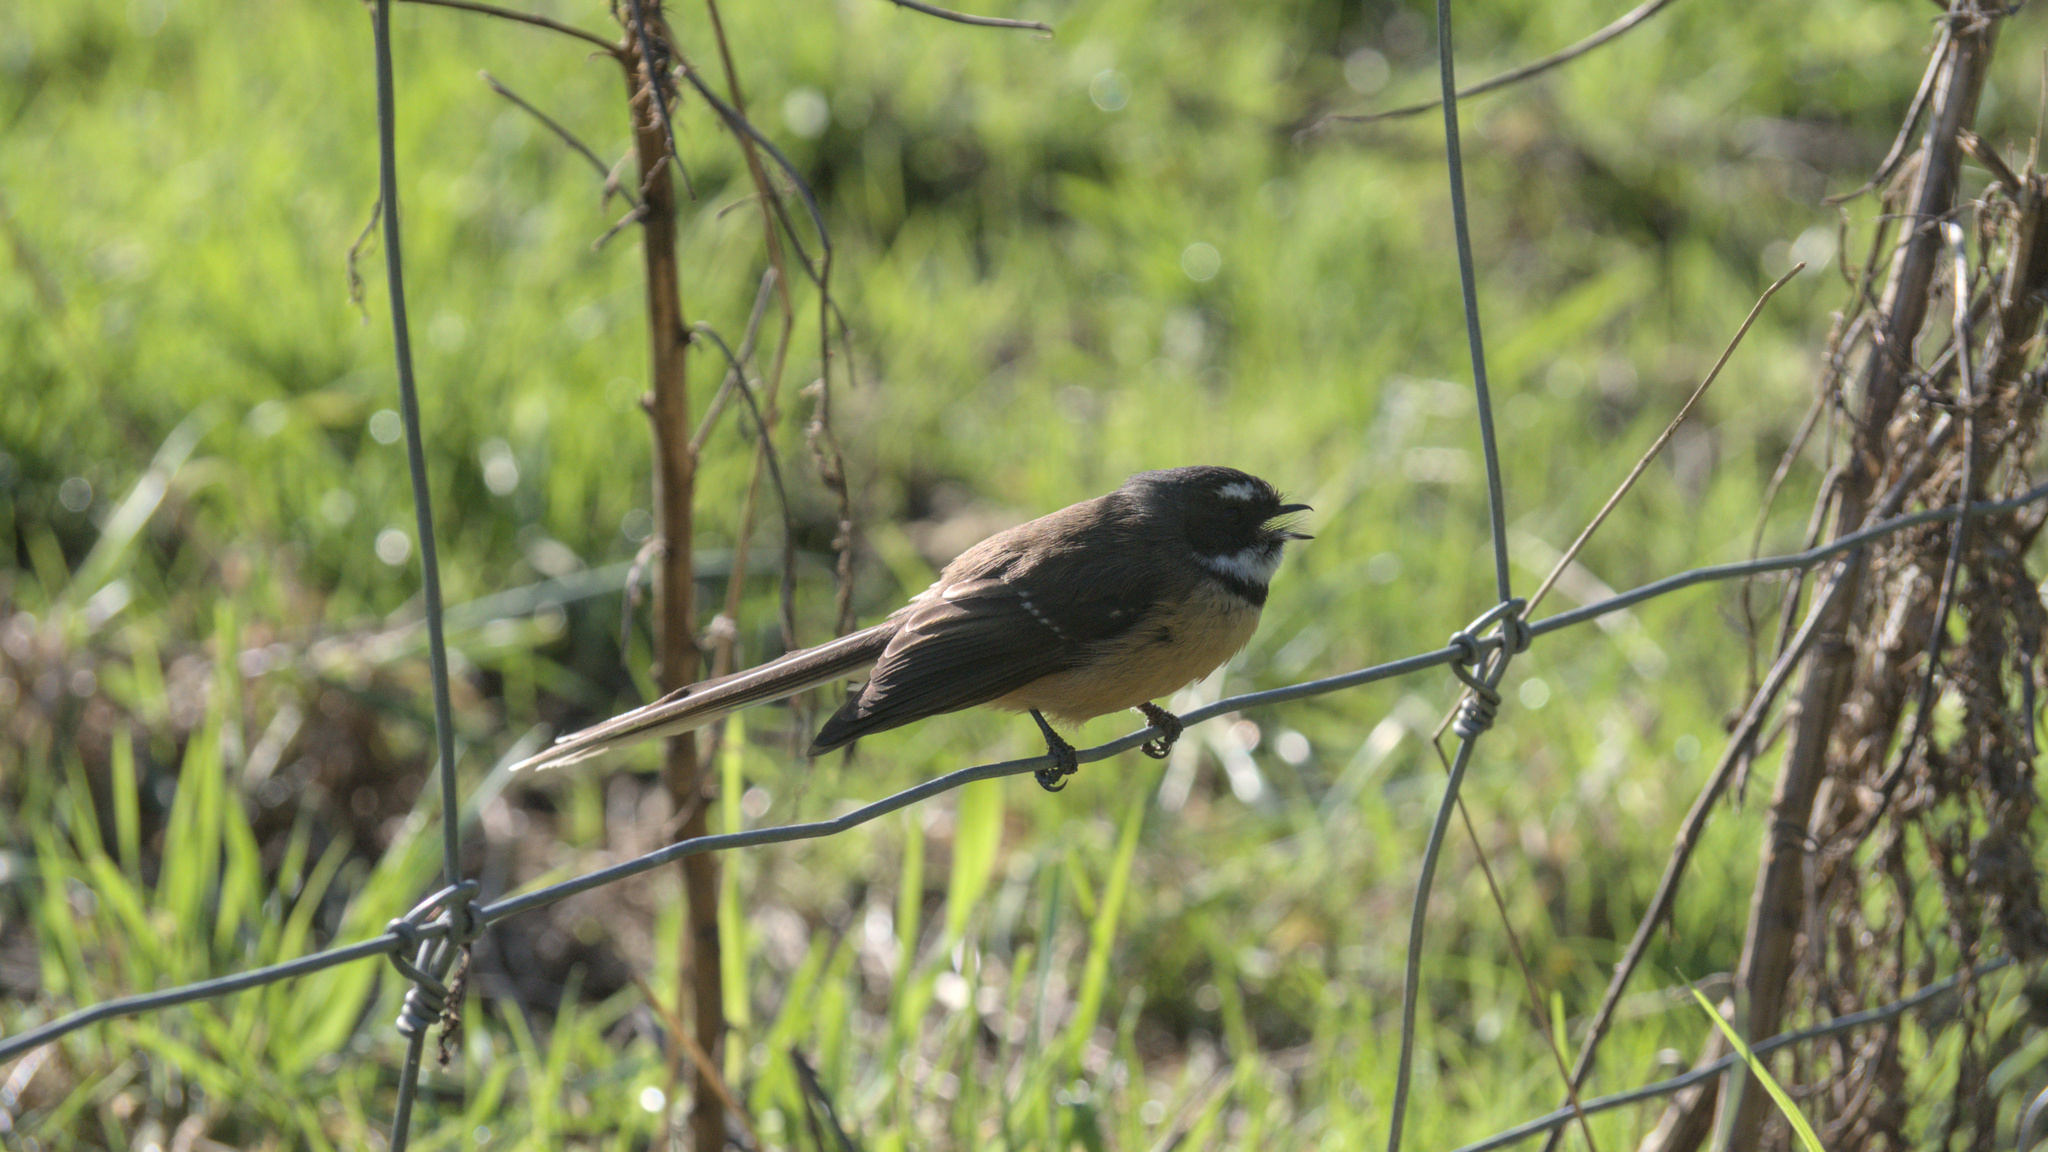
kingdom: Animalia
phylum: Chordata
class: Aves
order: Passeriformes
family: Rhipiduridae
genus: Rhipidura
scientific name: Rhipidura fuliginosa
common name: New zealand fantail
